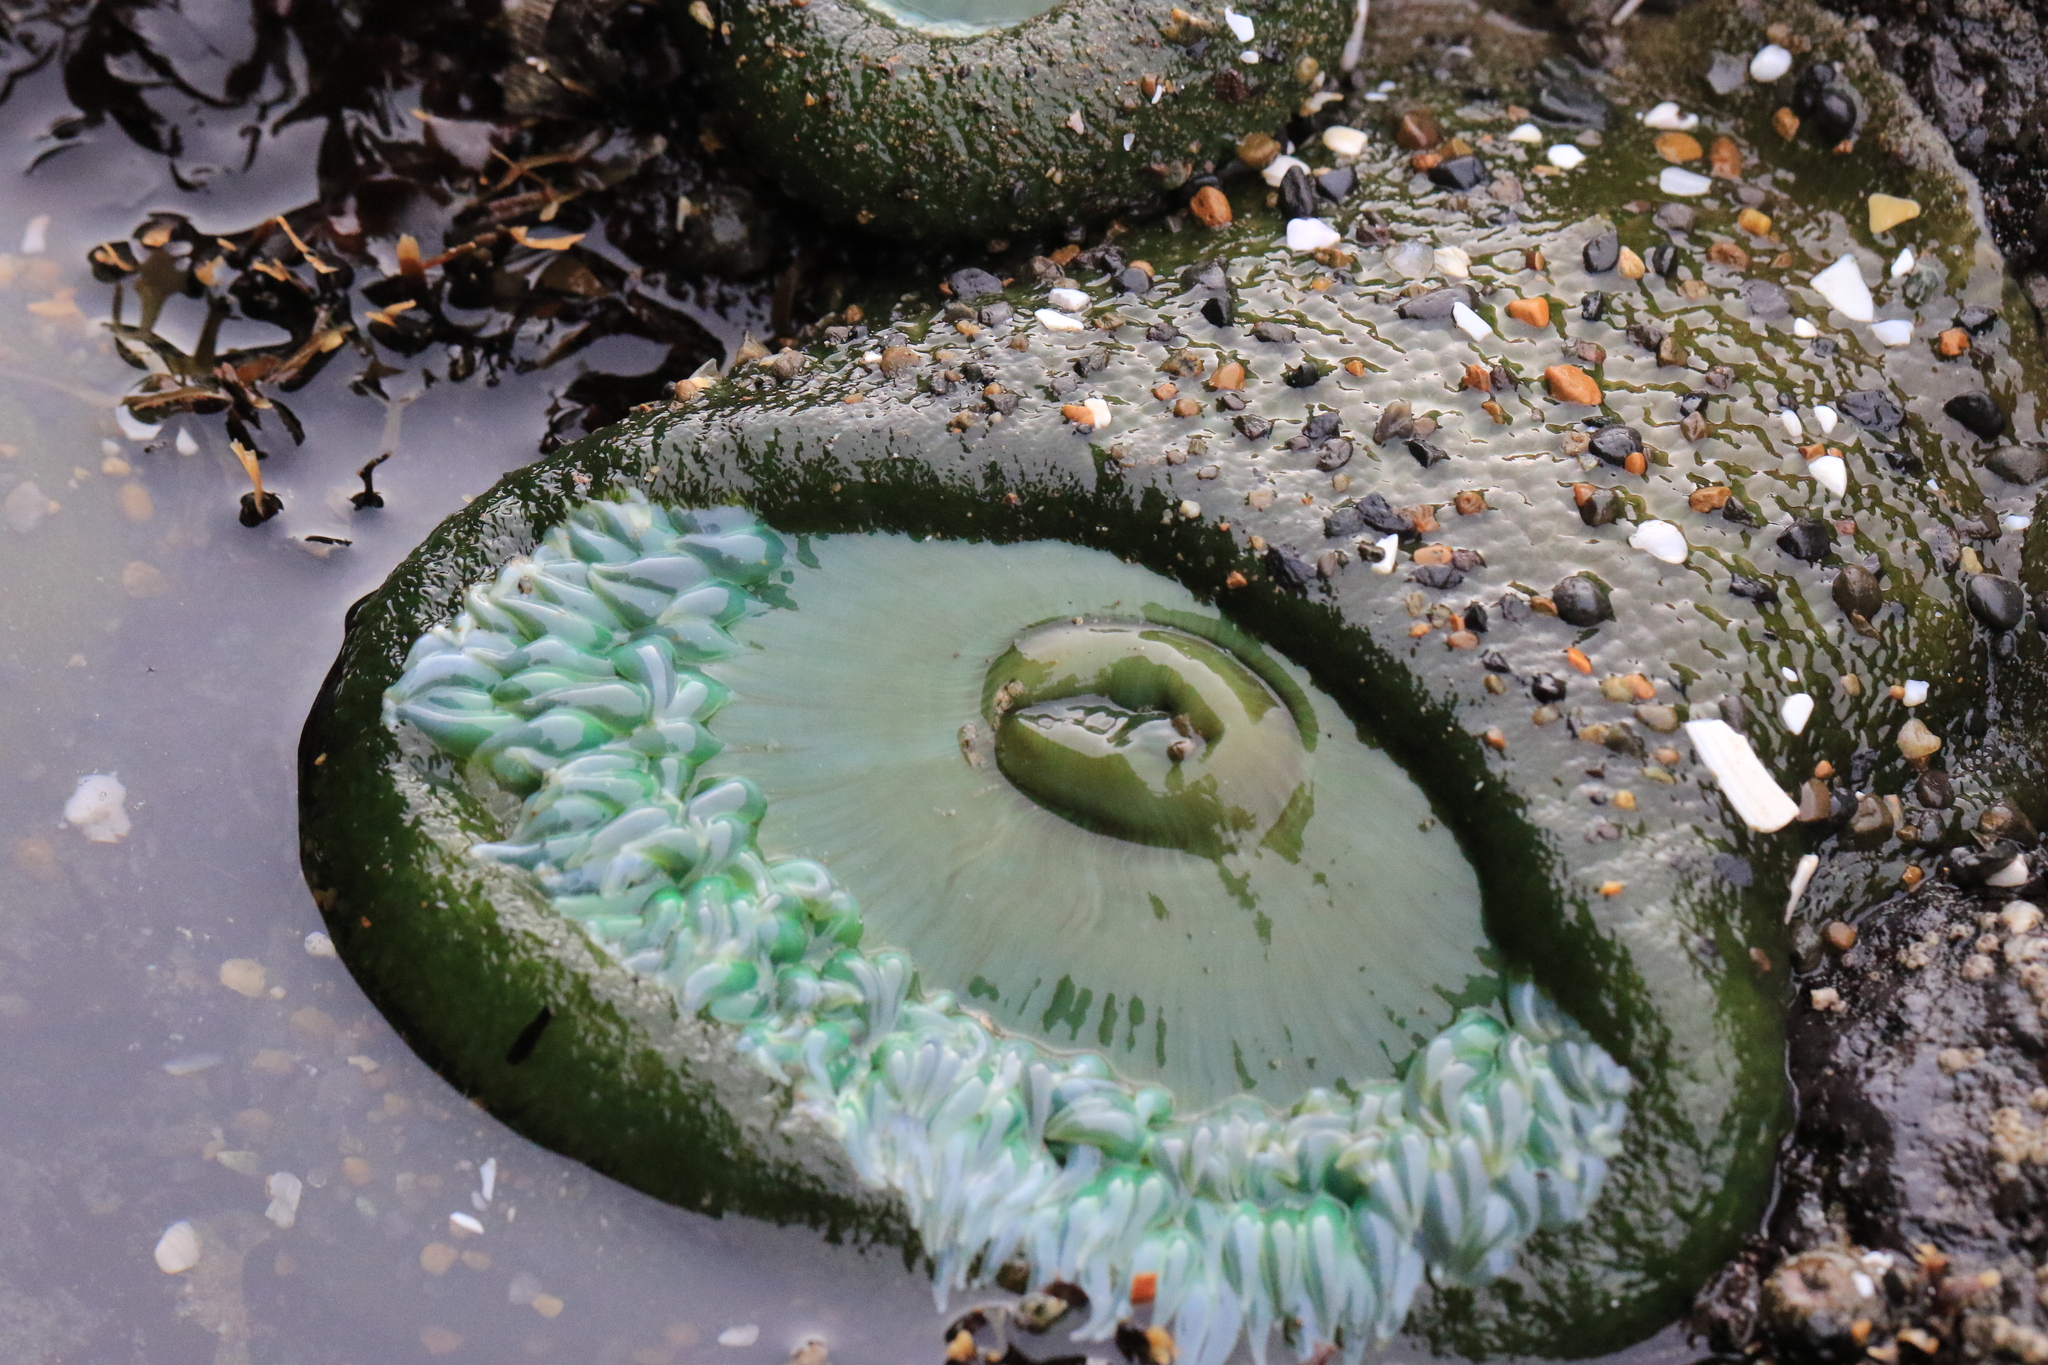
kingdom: Animalia
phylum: Cnidaria
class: Anthozoa
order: Actiniaria
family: Actiniidae
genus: Anthopleura
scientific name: Anthopleura xanthogrammica
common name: Giant green anemone
